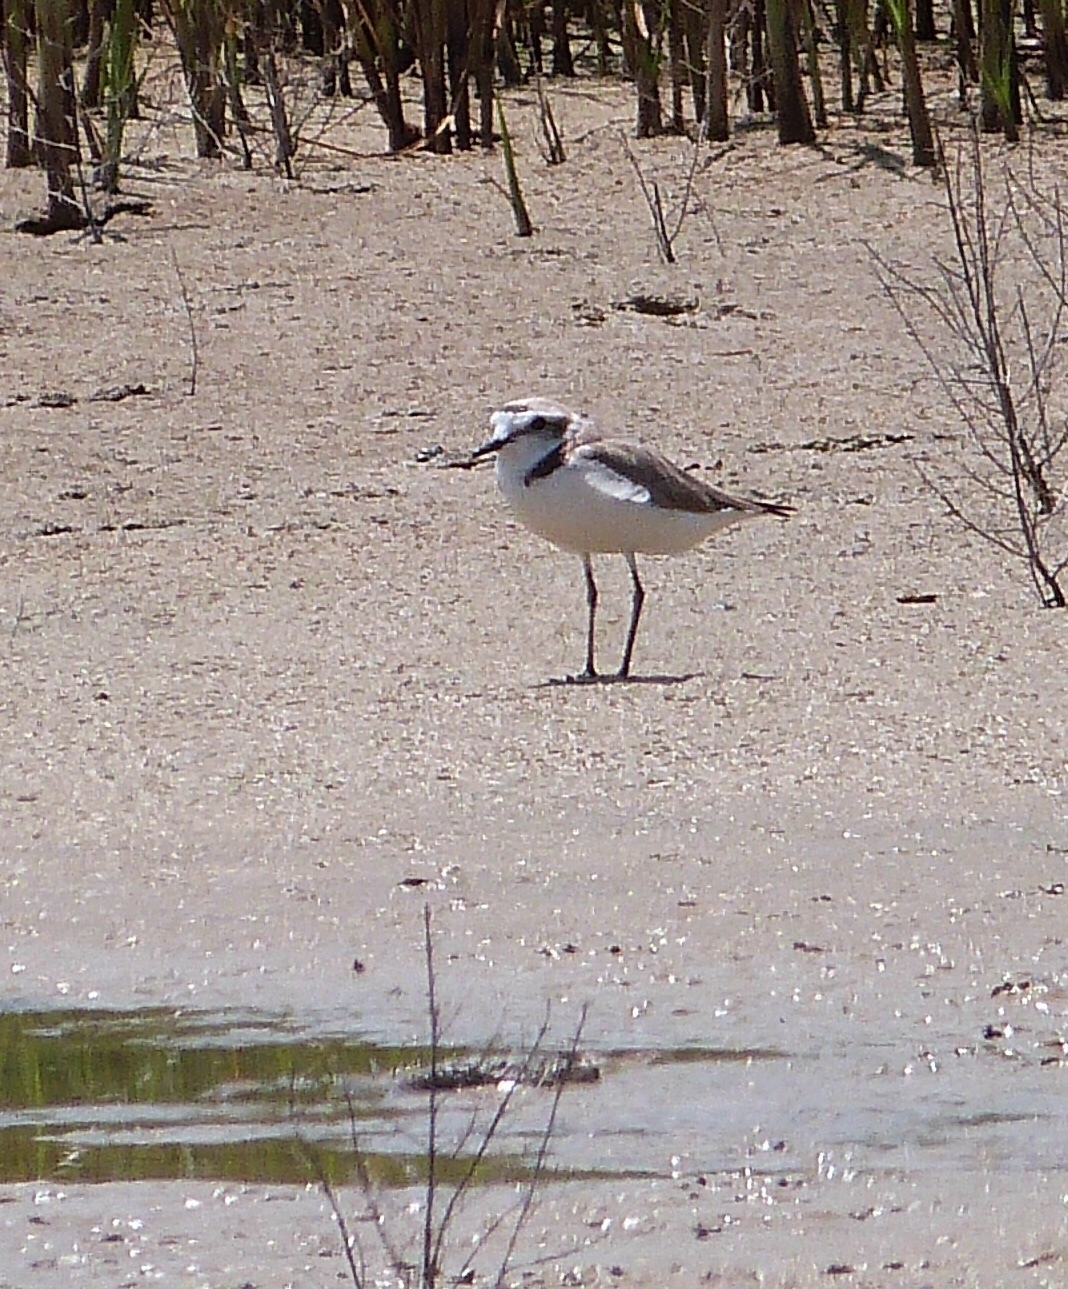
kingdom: Animalia
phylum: Chordata
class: Aves
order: Charadriiformes
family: Charadriidae
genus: Charadrius
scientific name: Charadrius alexandrinus
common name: Kentish plover
